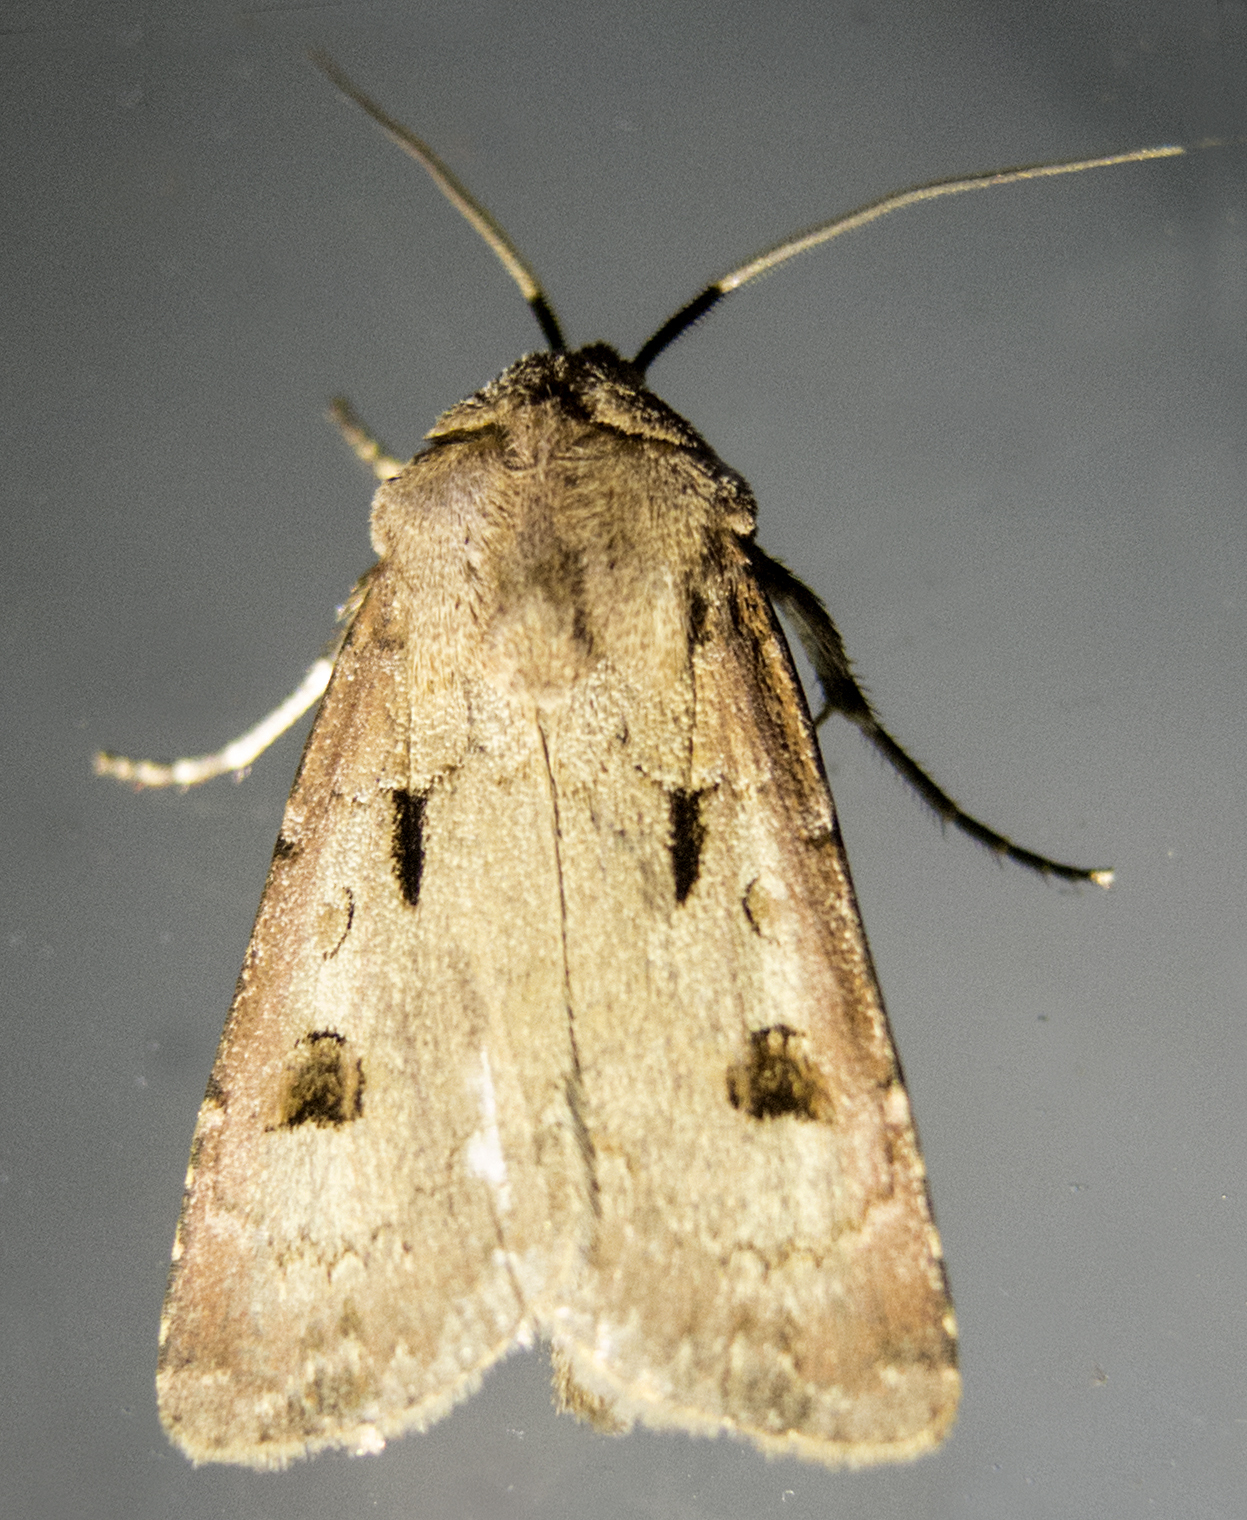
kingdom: Animalia
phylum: Arthropoda
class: Insecta
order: Lepidoptera
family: Noctuidae
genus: Agrotis
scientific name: Agrotis exclamationis
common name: Heart and dart
